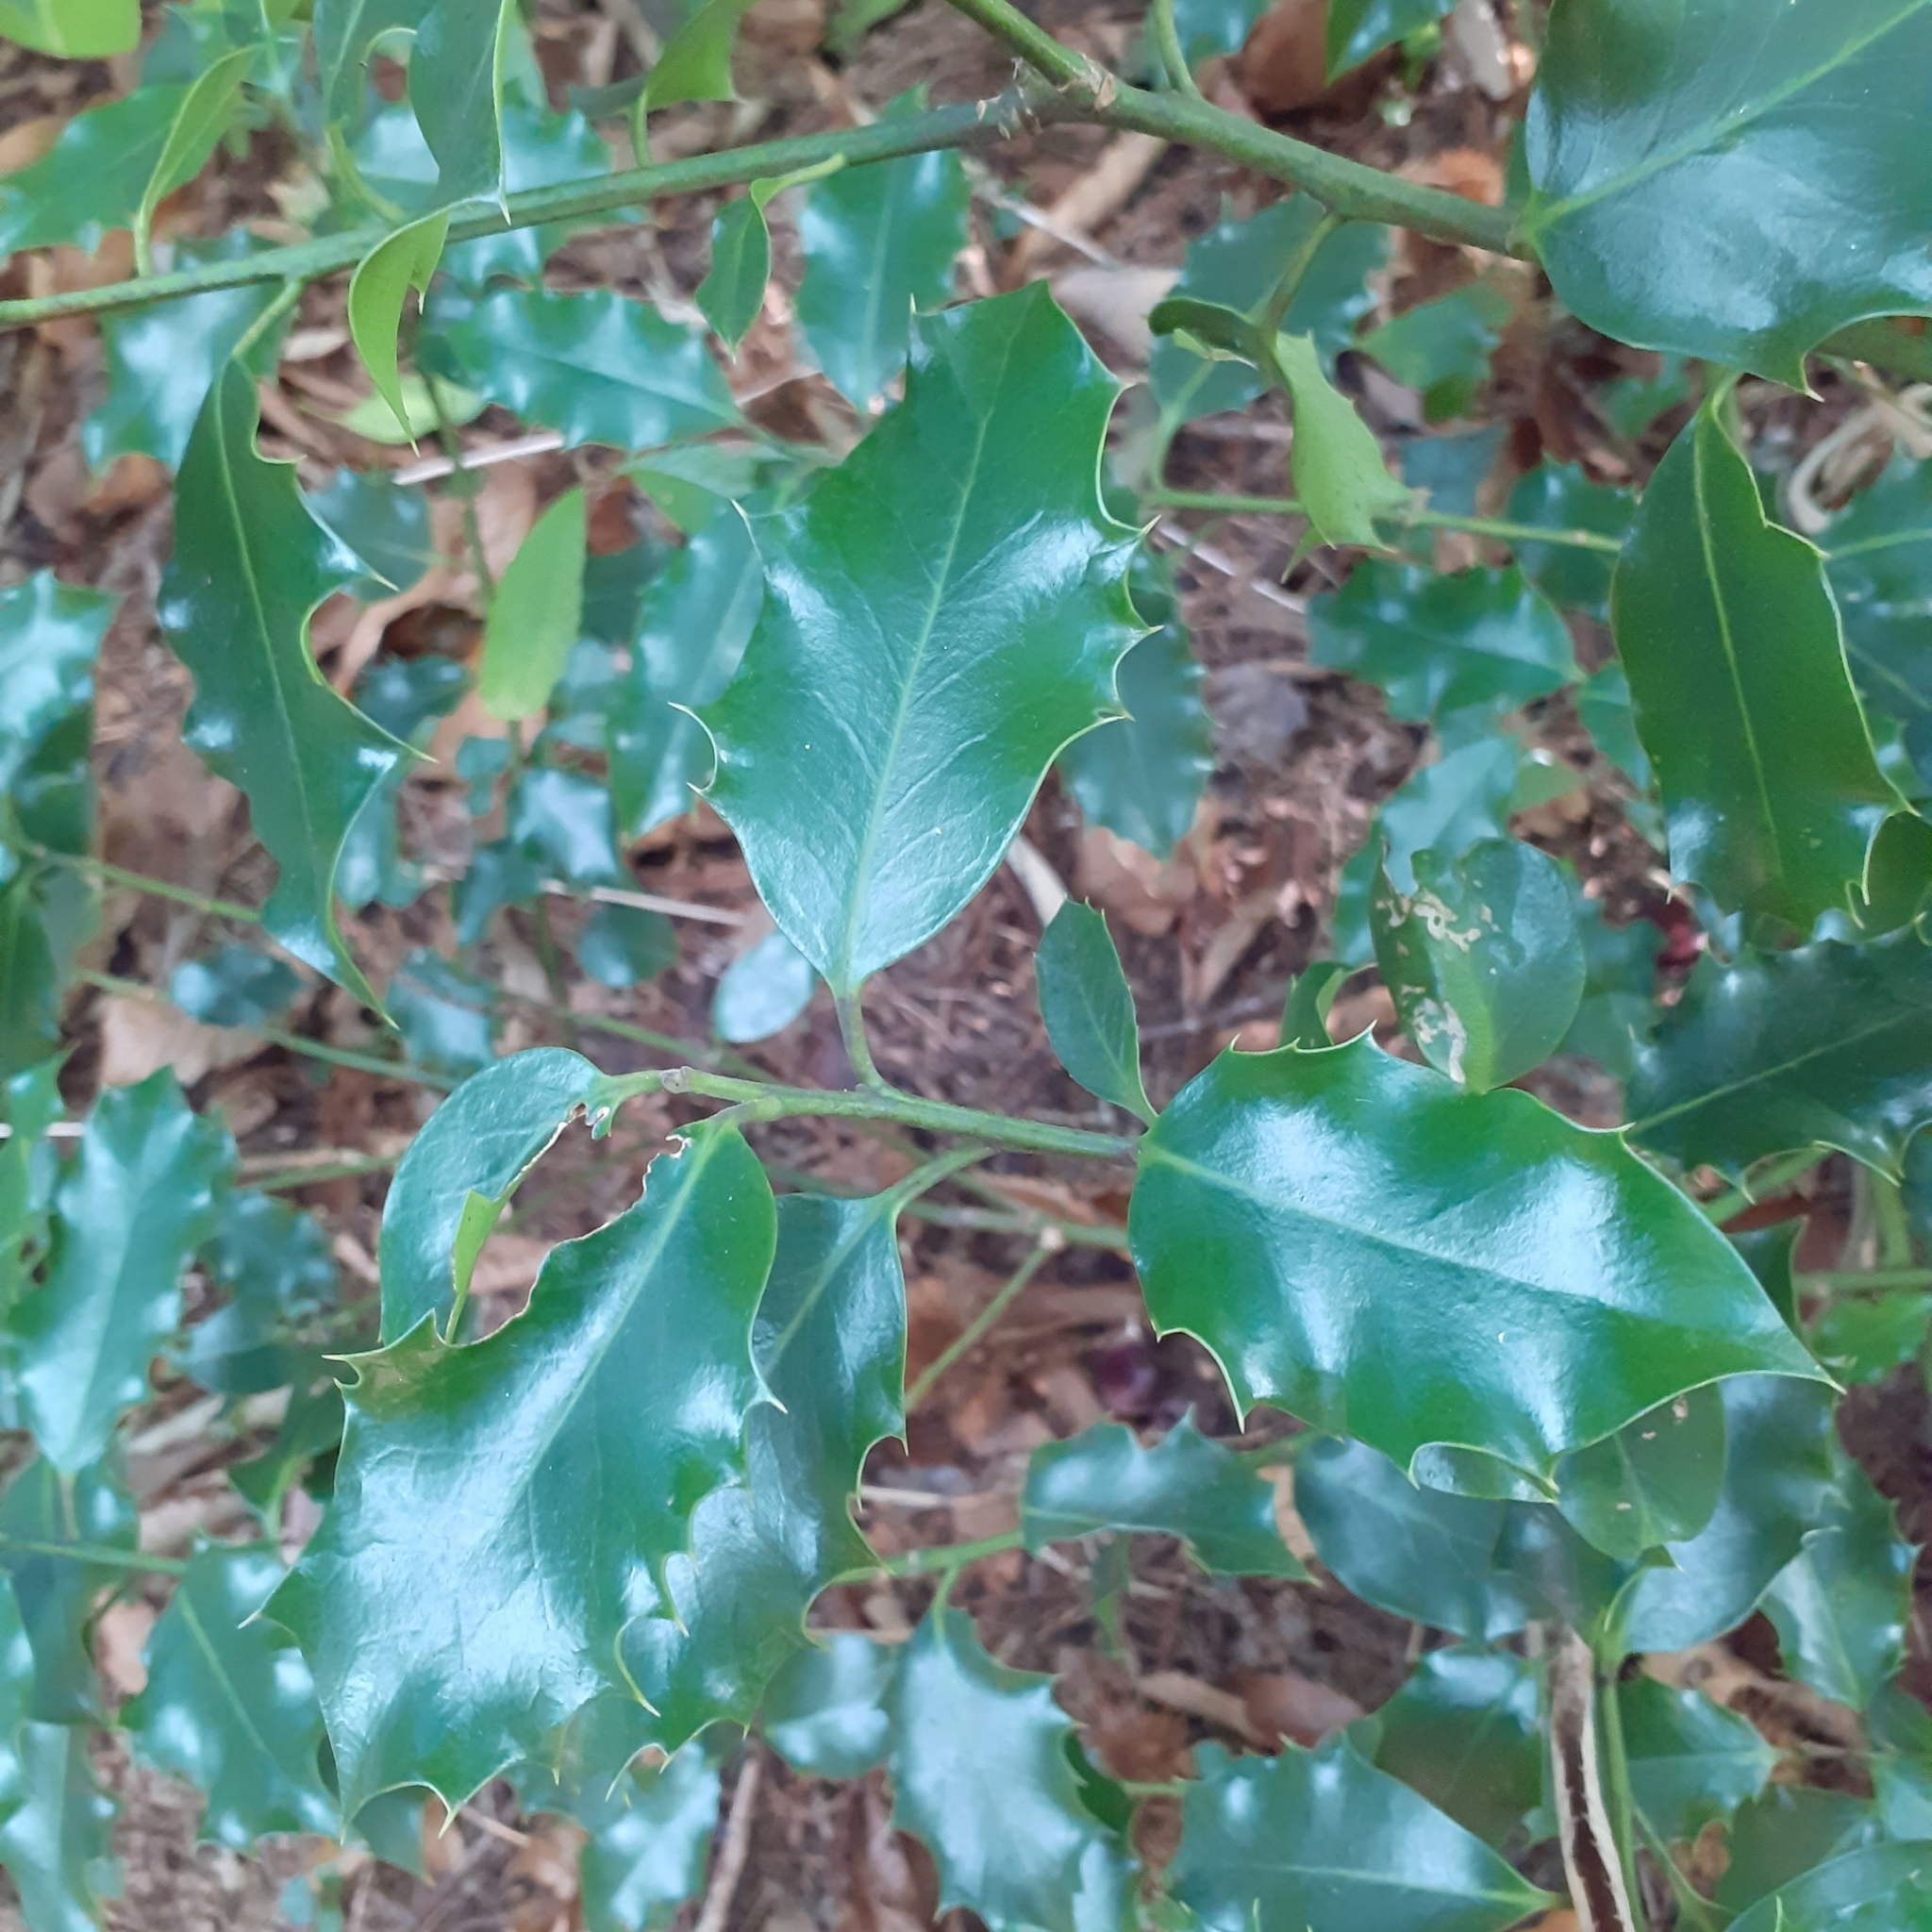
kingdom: Plantae
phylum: Tracheophyta
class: Magnoliopsida
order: Aquifoliales
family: Aquifoliaceae
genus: Ilex
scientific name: Ilex aquifolium
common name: English holly
